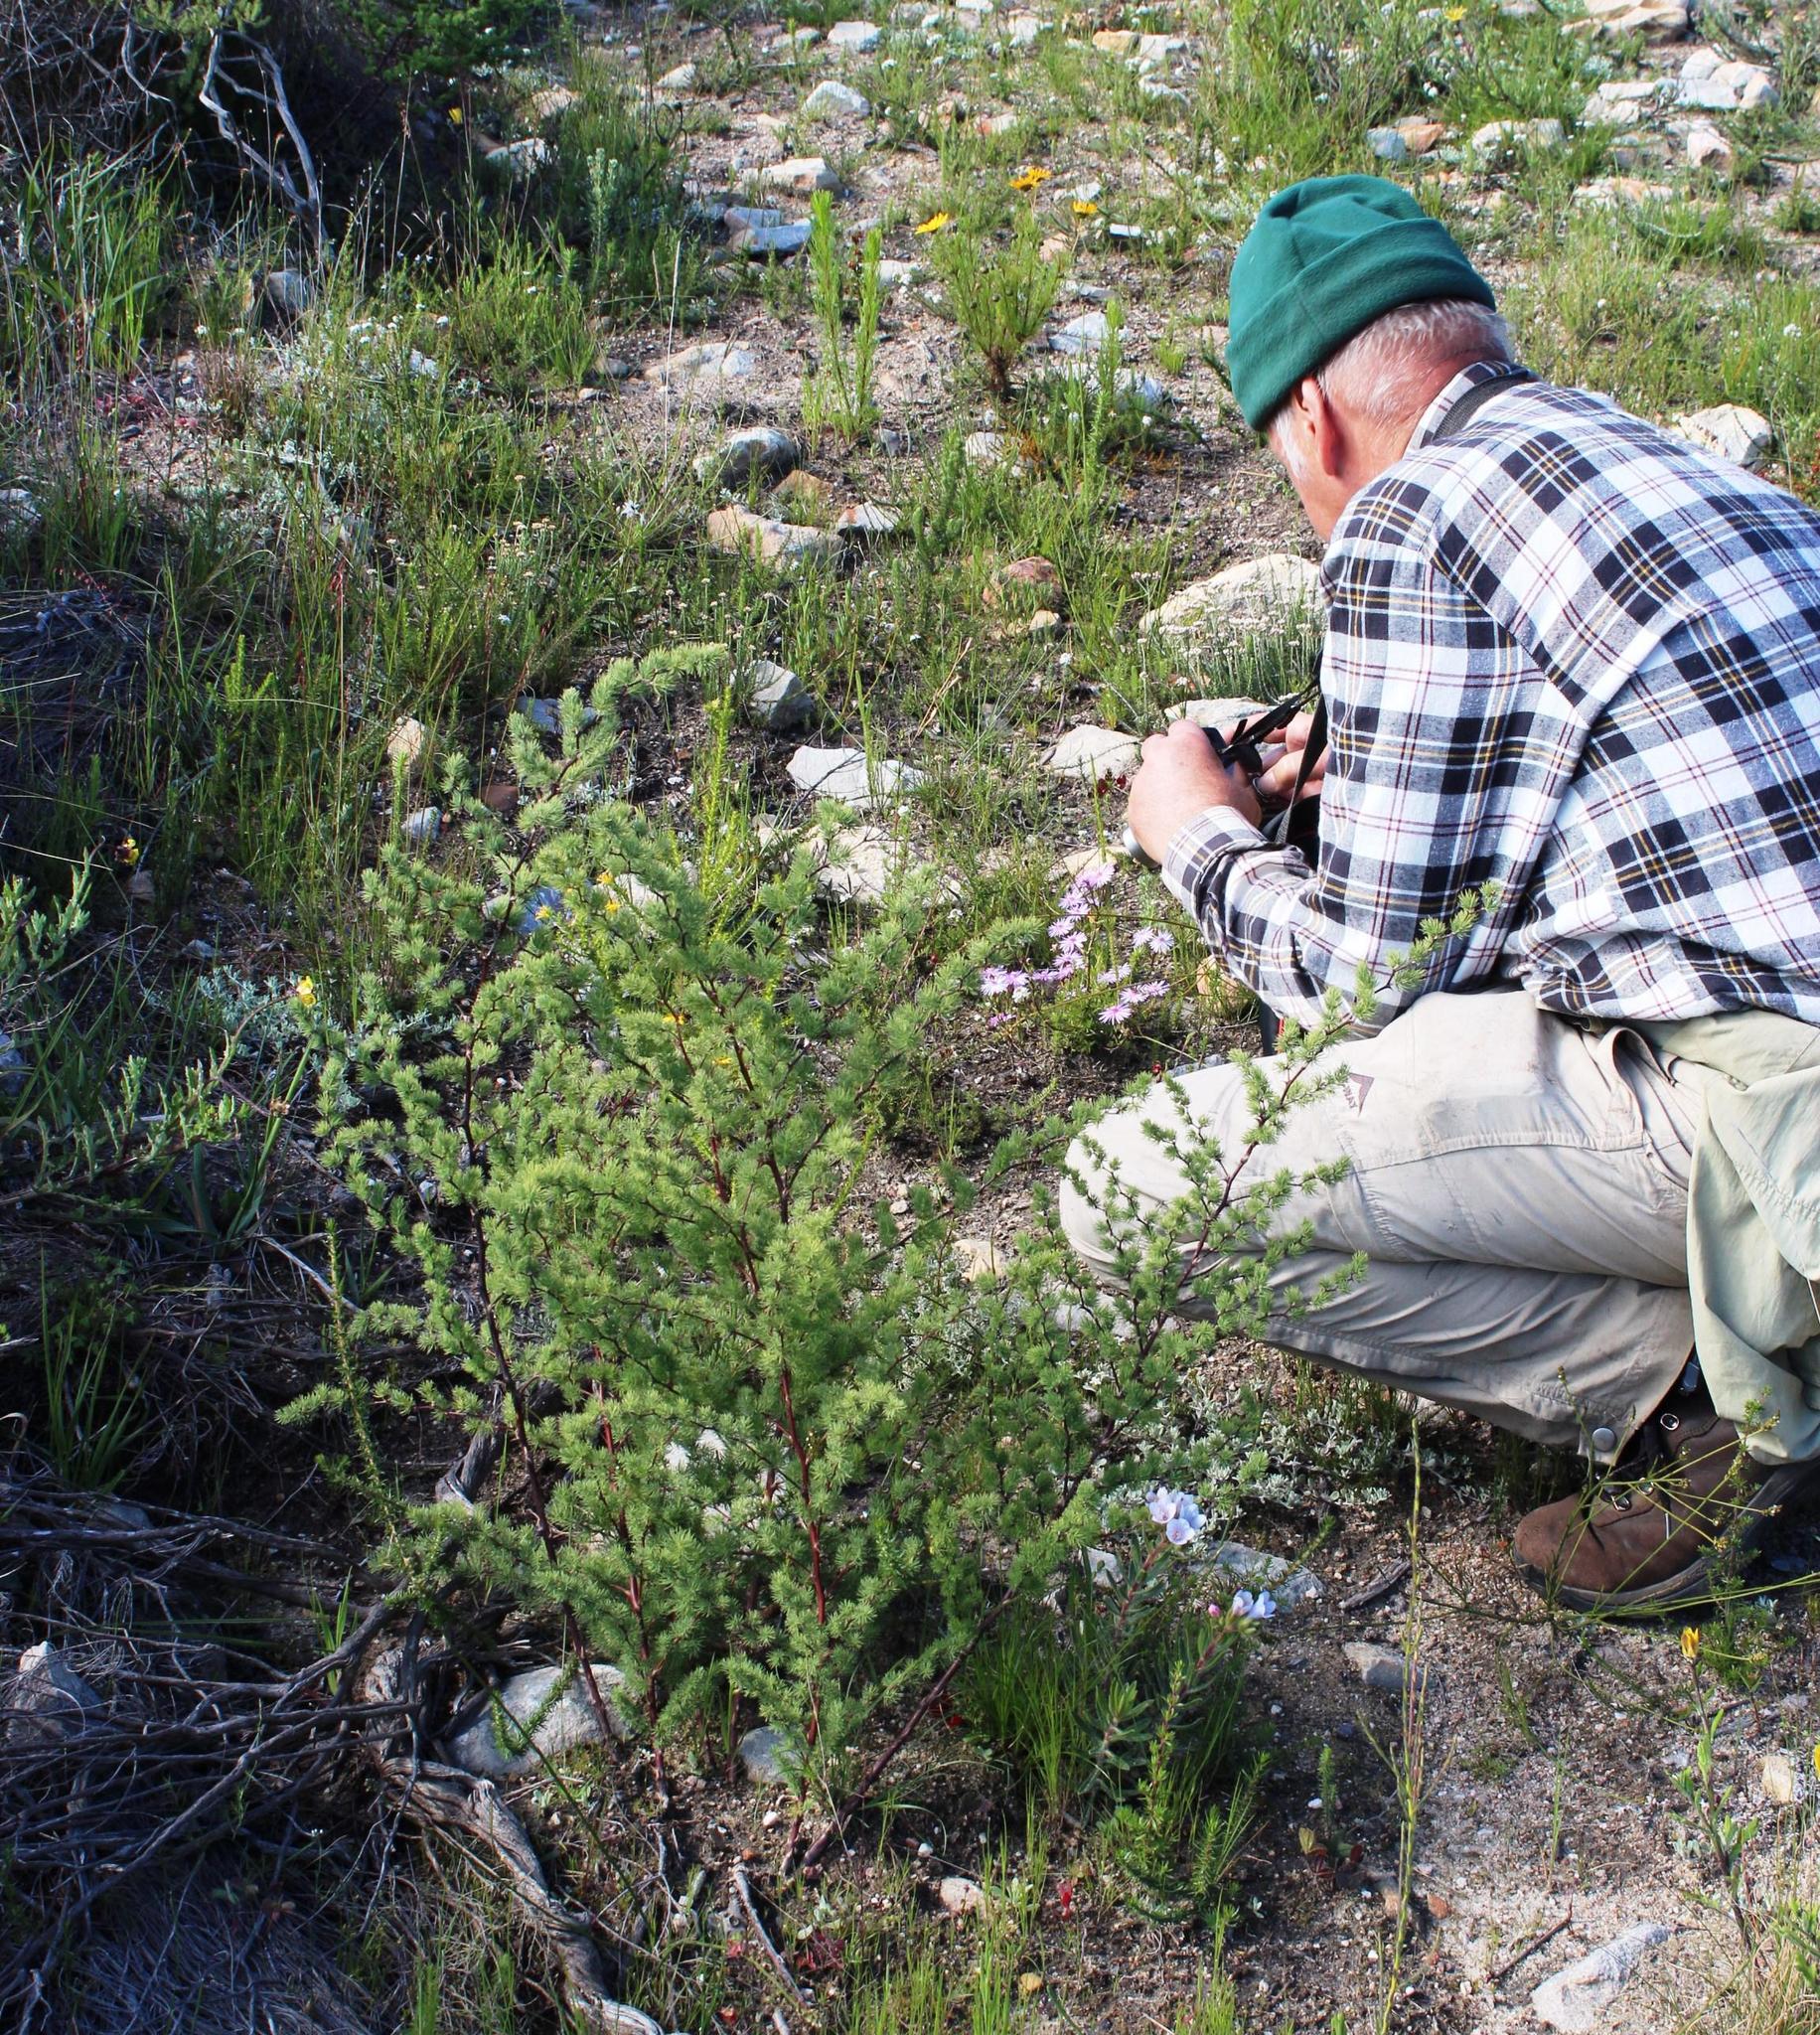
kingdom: Plantae
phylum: Tracheophyta
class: Liliopsida
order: Asparagales
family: Asparagaceae
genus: Asparagus
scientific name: Asparagus rubicundus
